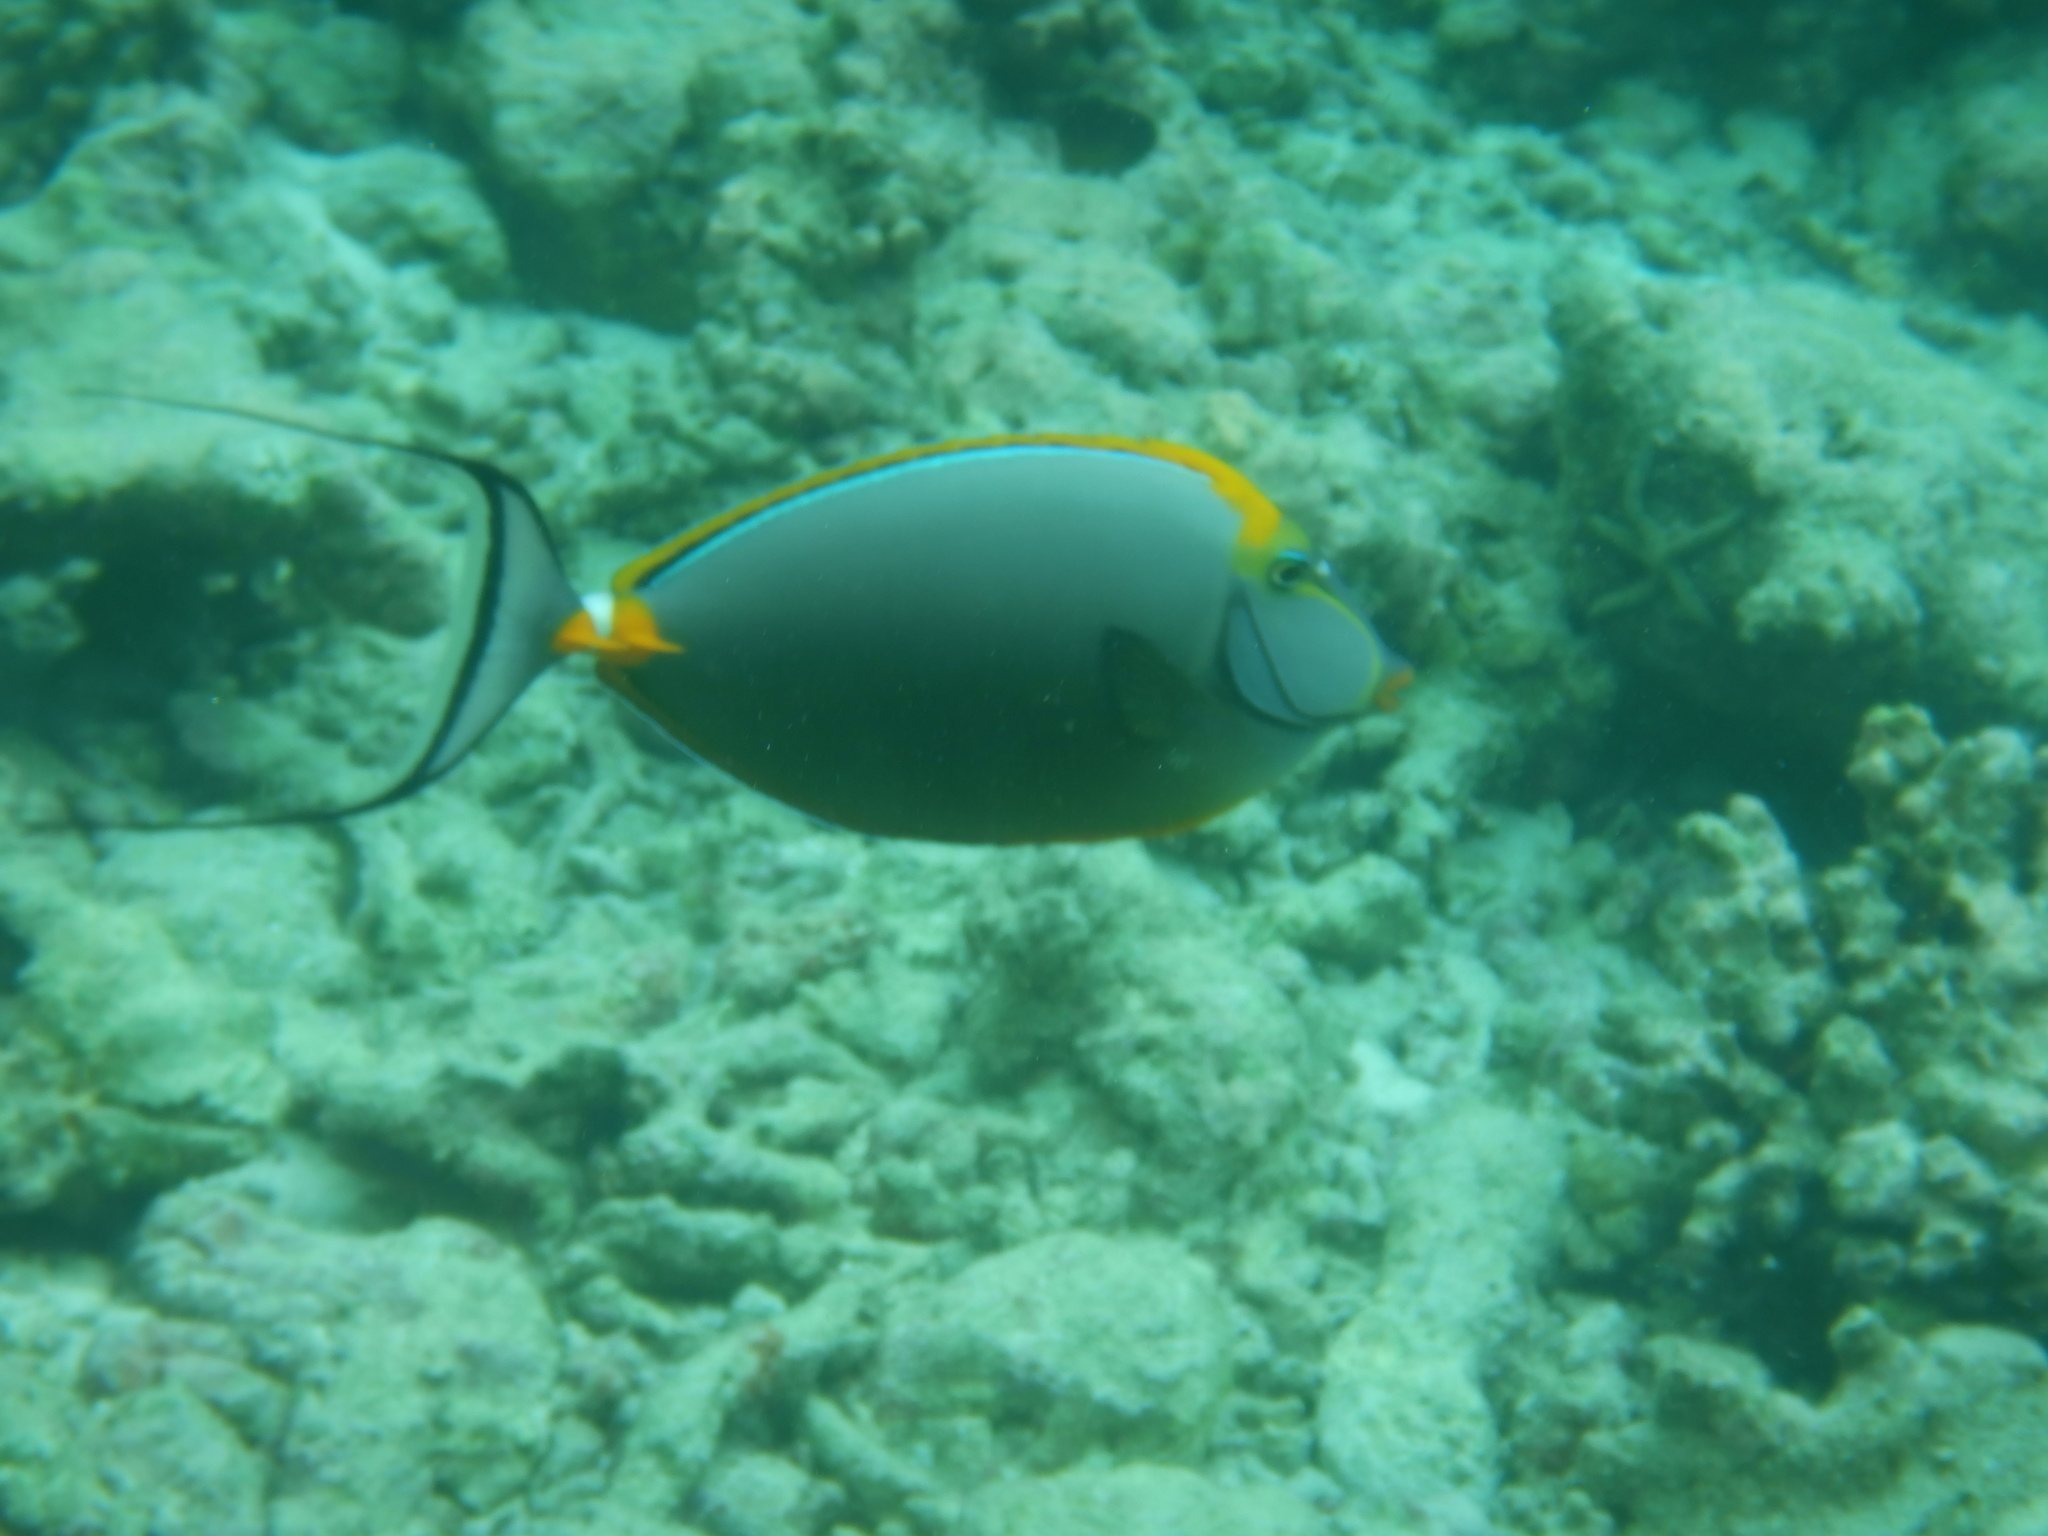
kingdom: Animalia
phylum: Chordata
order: Perciformes
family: Acanthuridae
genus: Naso
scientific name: Naso elegans
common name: Orangespine unicornfish
